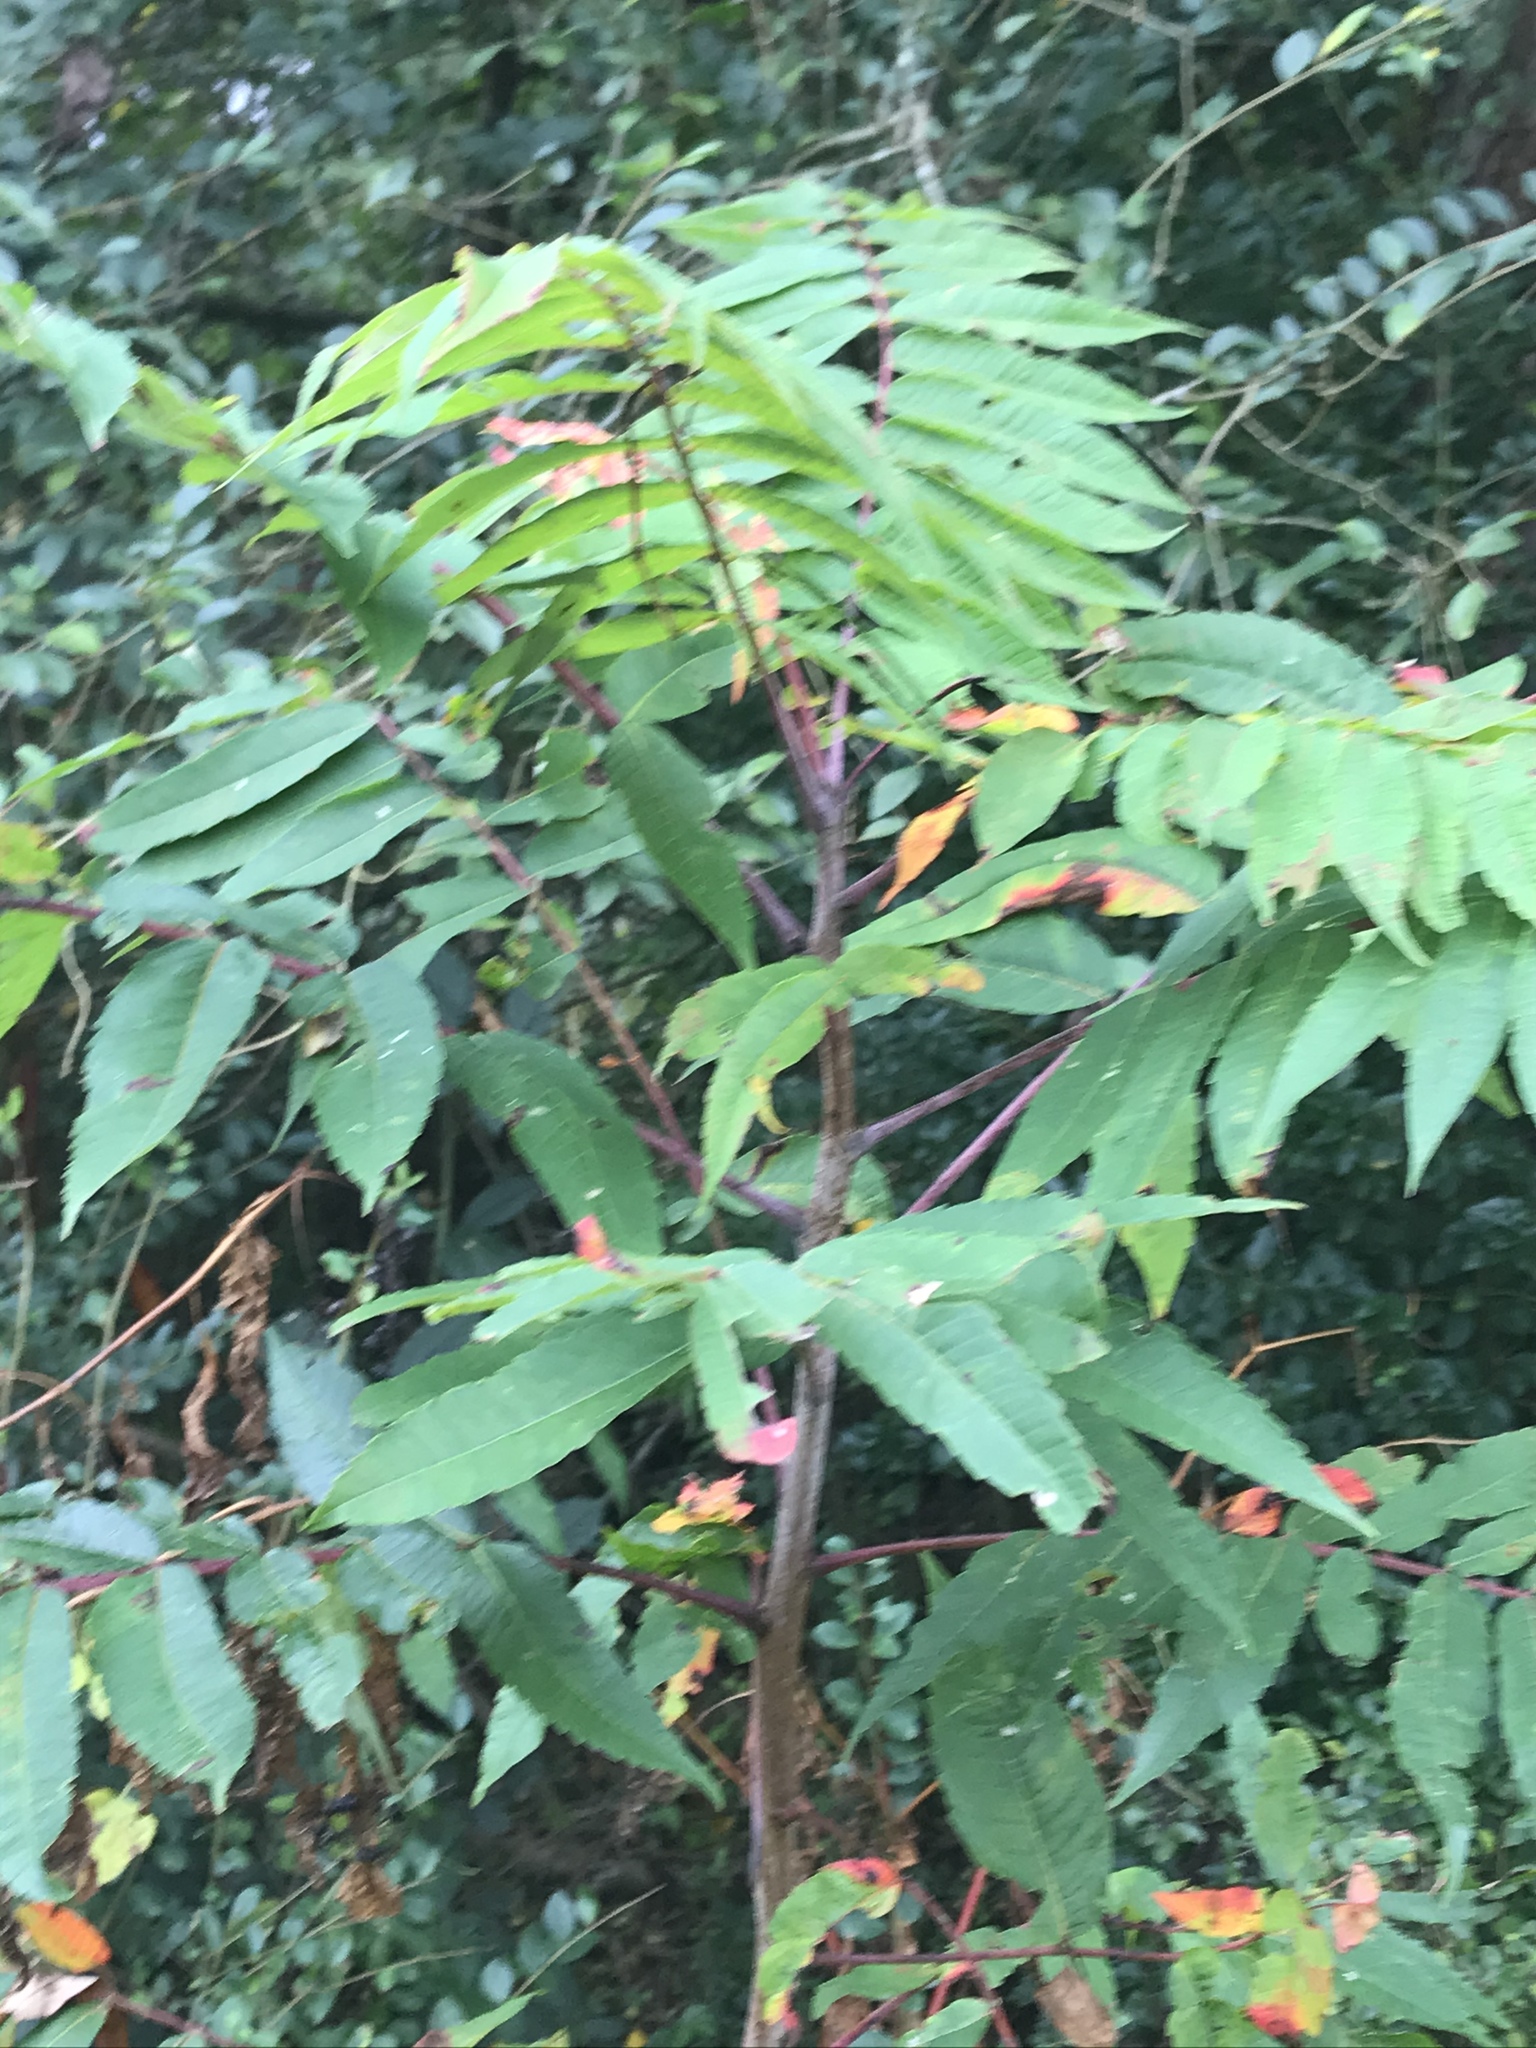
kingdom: Plantae
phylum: Tracheophyta
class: Magnoliopsida
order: Sapindales
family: Anacardiaceae
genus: Rhus
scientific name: Rhus glabra
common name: Scarlet sumac
